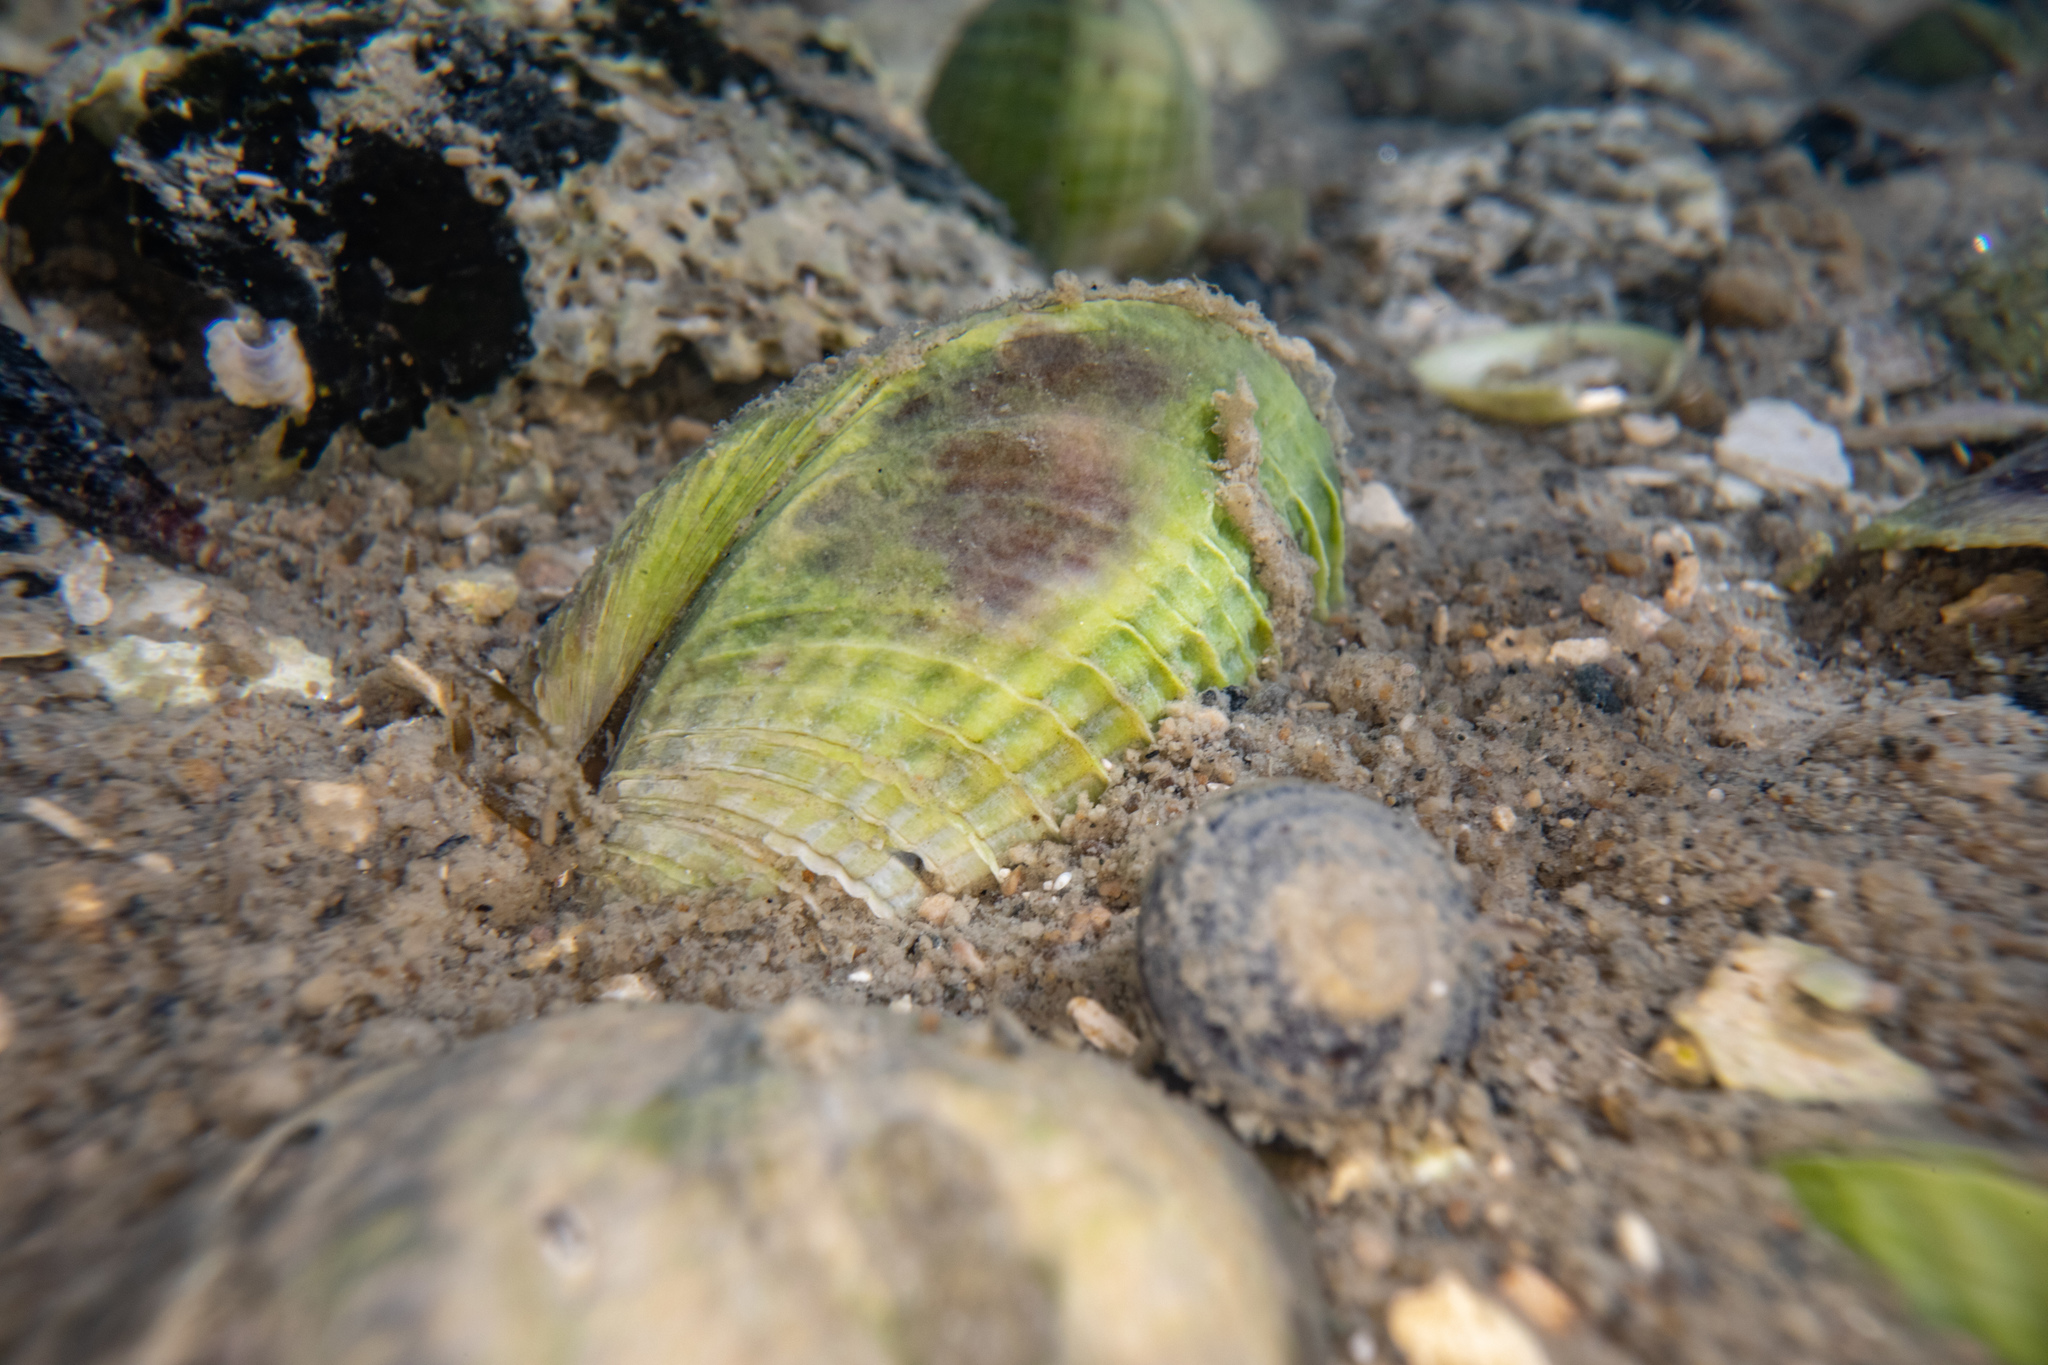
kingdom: Animalia
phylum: Mollusca
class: Bivalvia
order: Venerida
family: Veneridae
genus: Austrovenus
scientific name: Austrovenus stutchburyi
